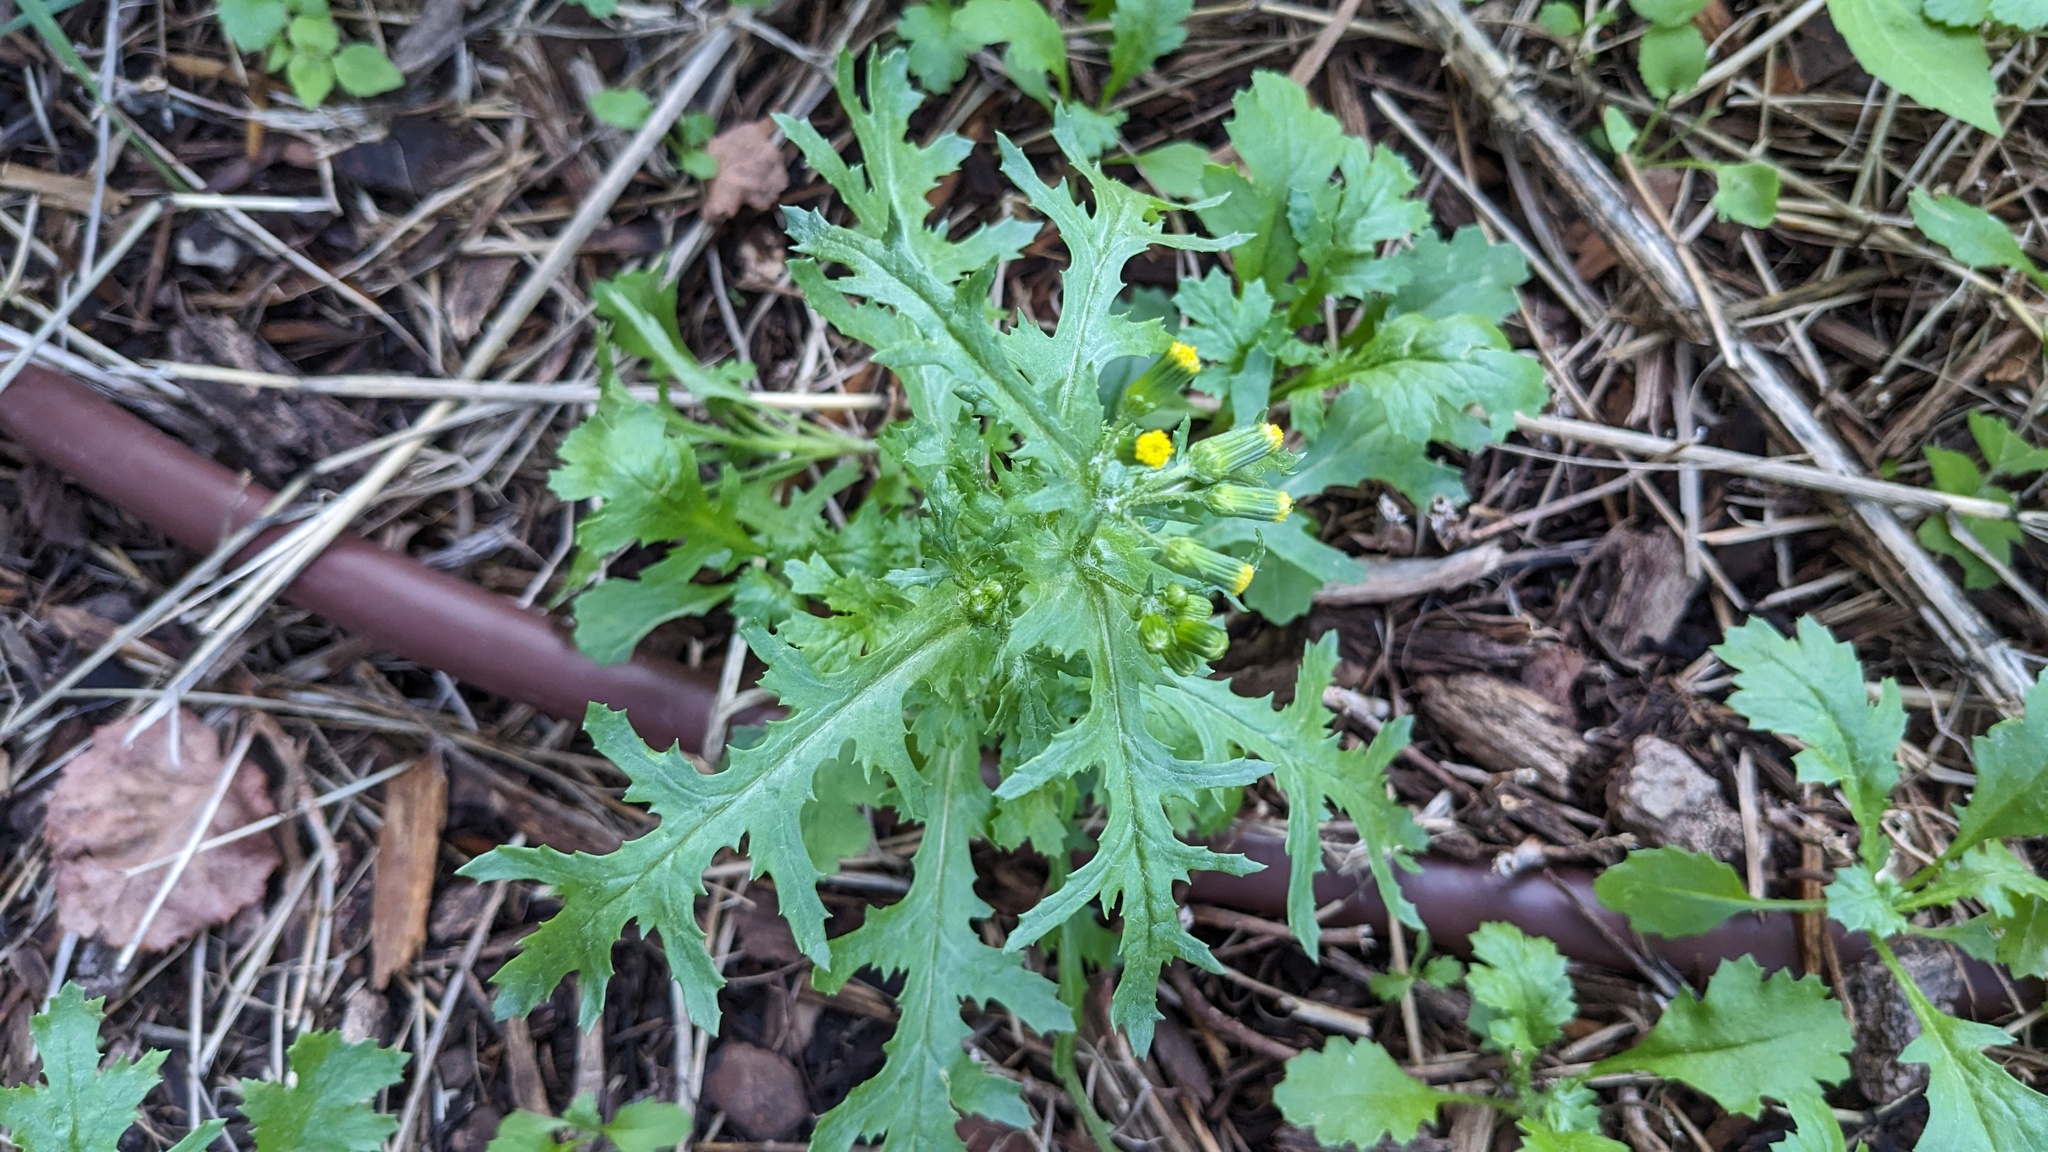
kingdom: Plantae
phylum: Tracheophyta
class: Magnoliopsida
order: Asterales
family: Asteraceae
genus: Senecio
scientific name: Senecio vulgaris
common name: Old-man-in-the-spring
